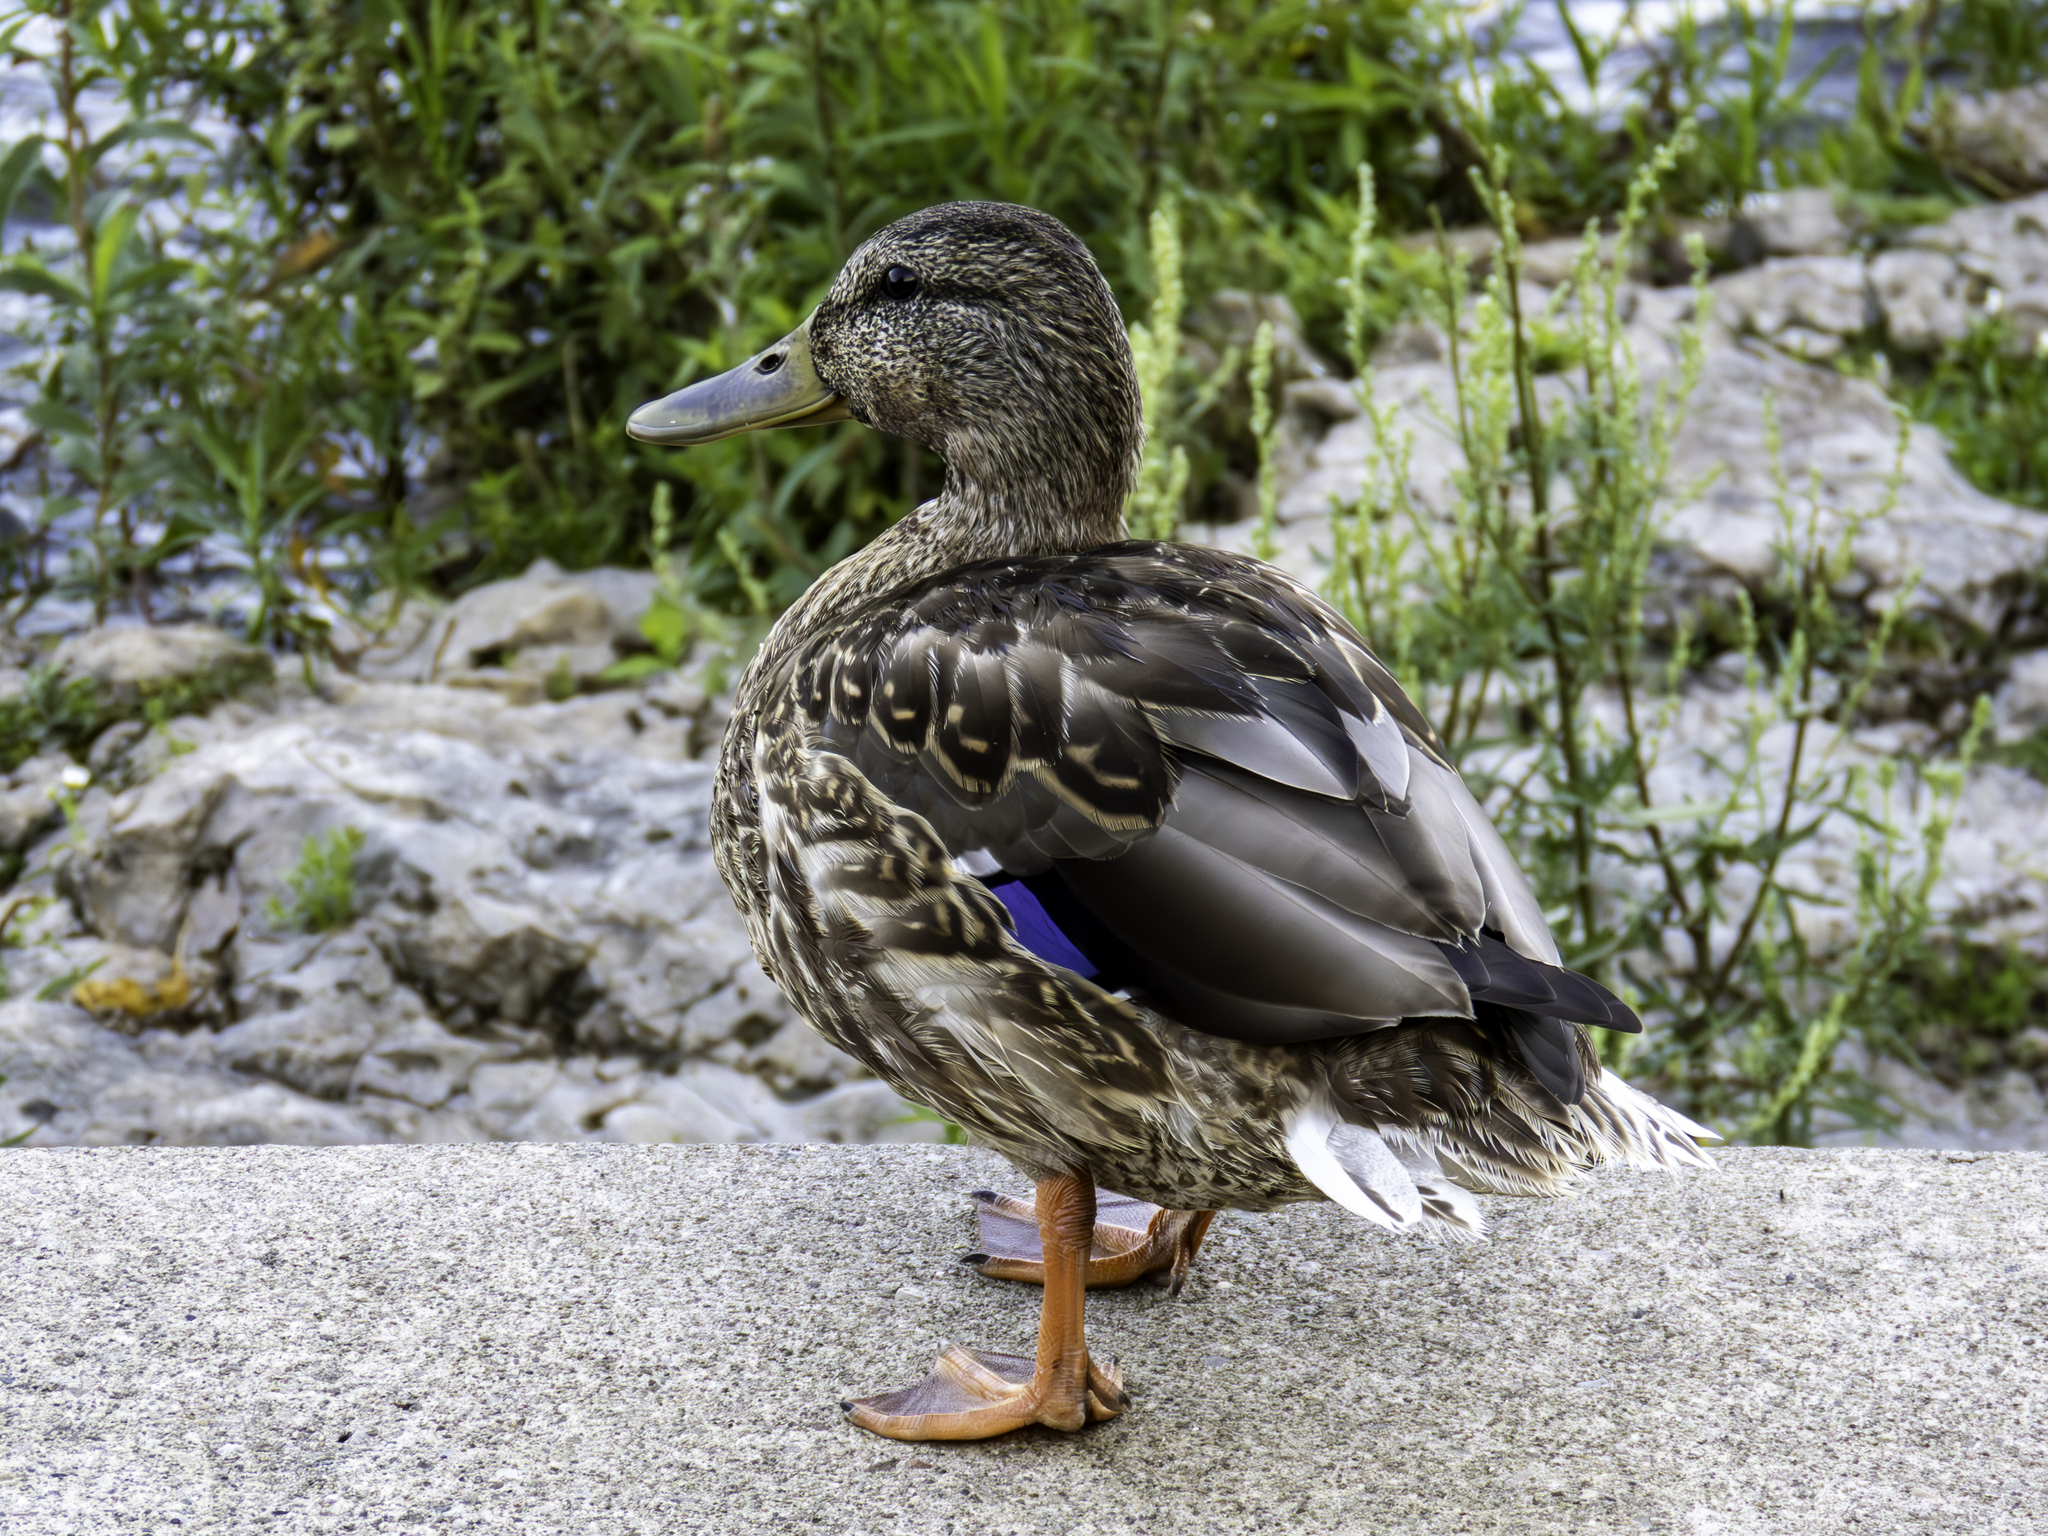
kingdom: Animalia
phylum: Chordata
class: Aves
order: Anseriformes
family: Anatidae
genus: Anas
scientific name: Anas platyrhynchos
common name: Mallard
